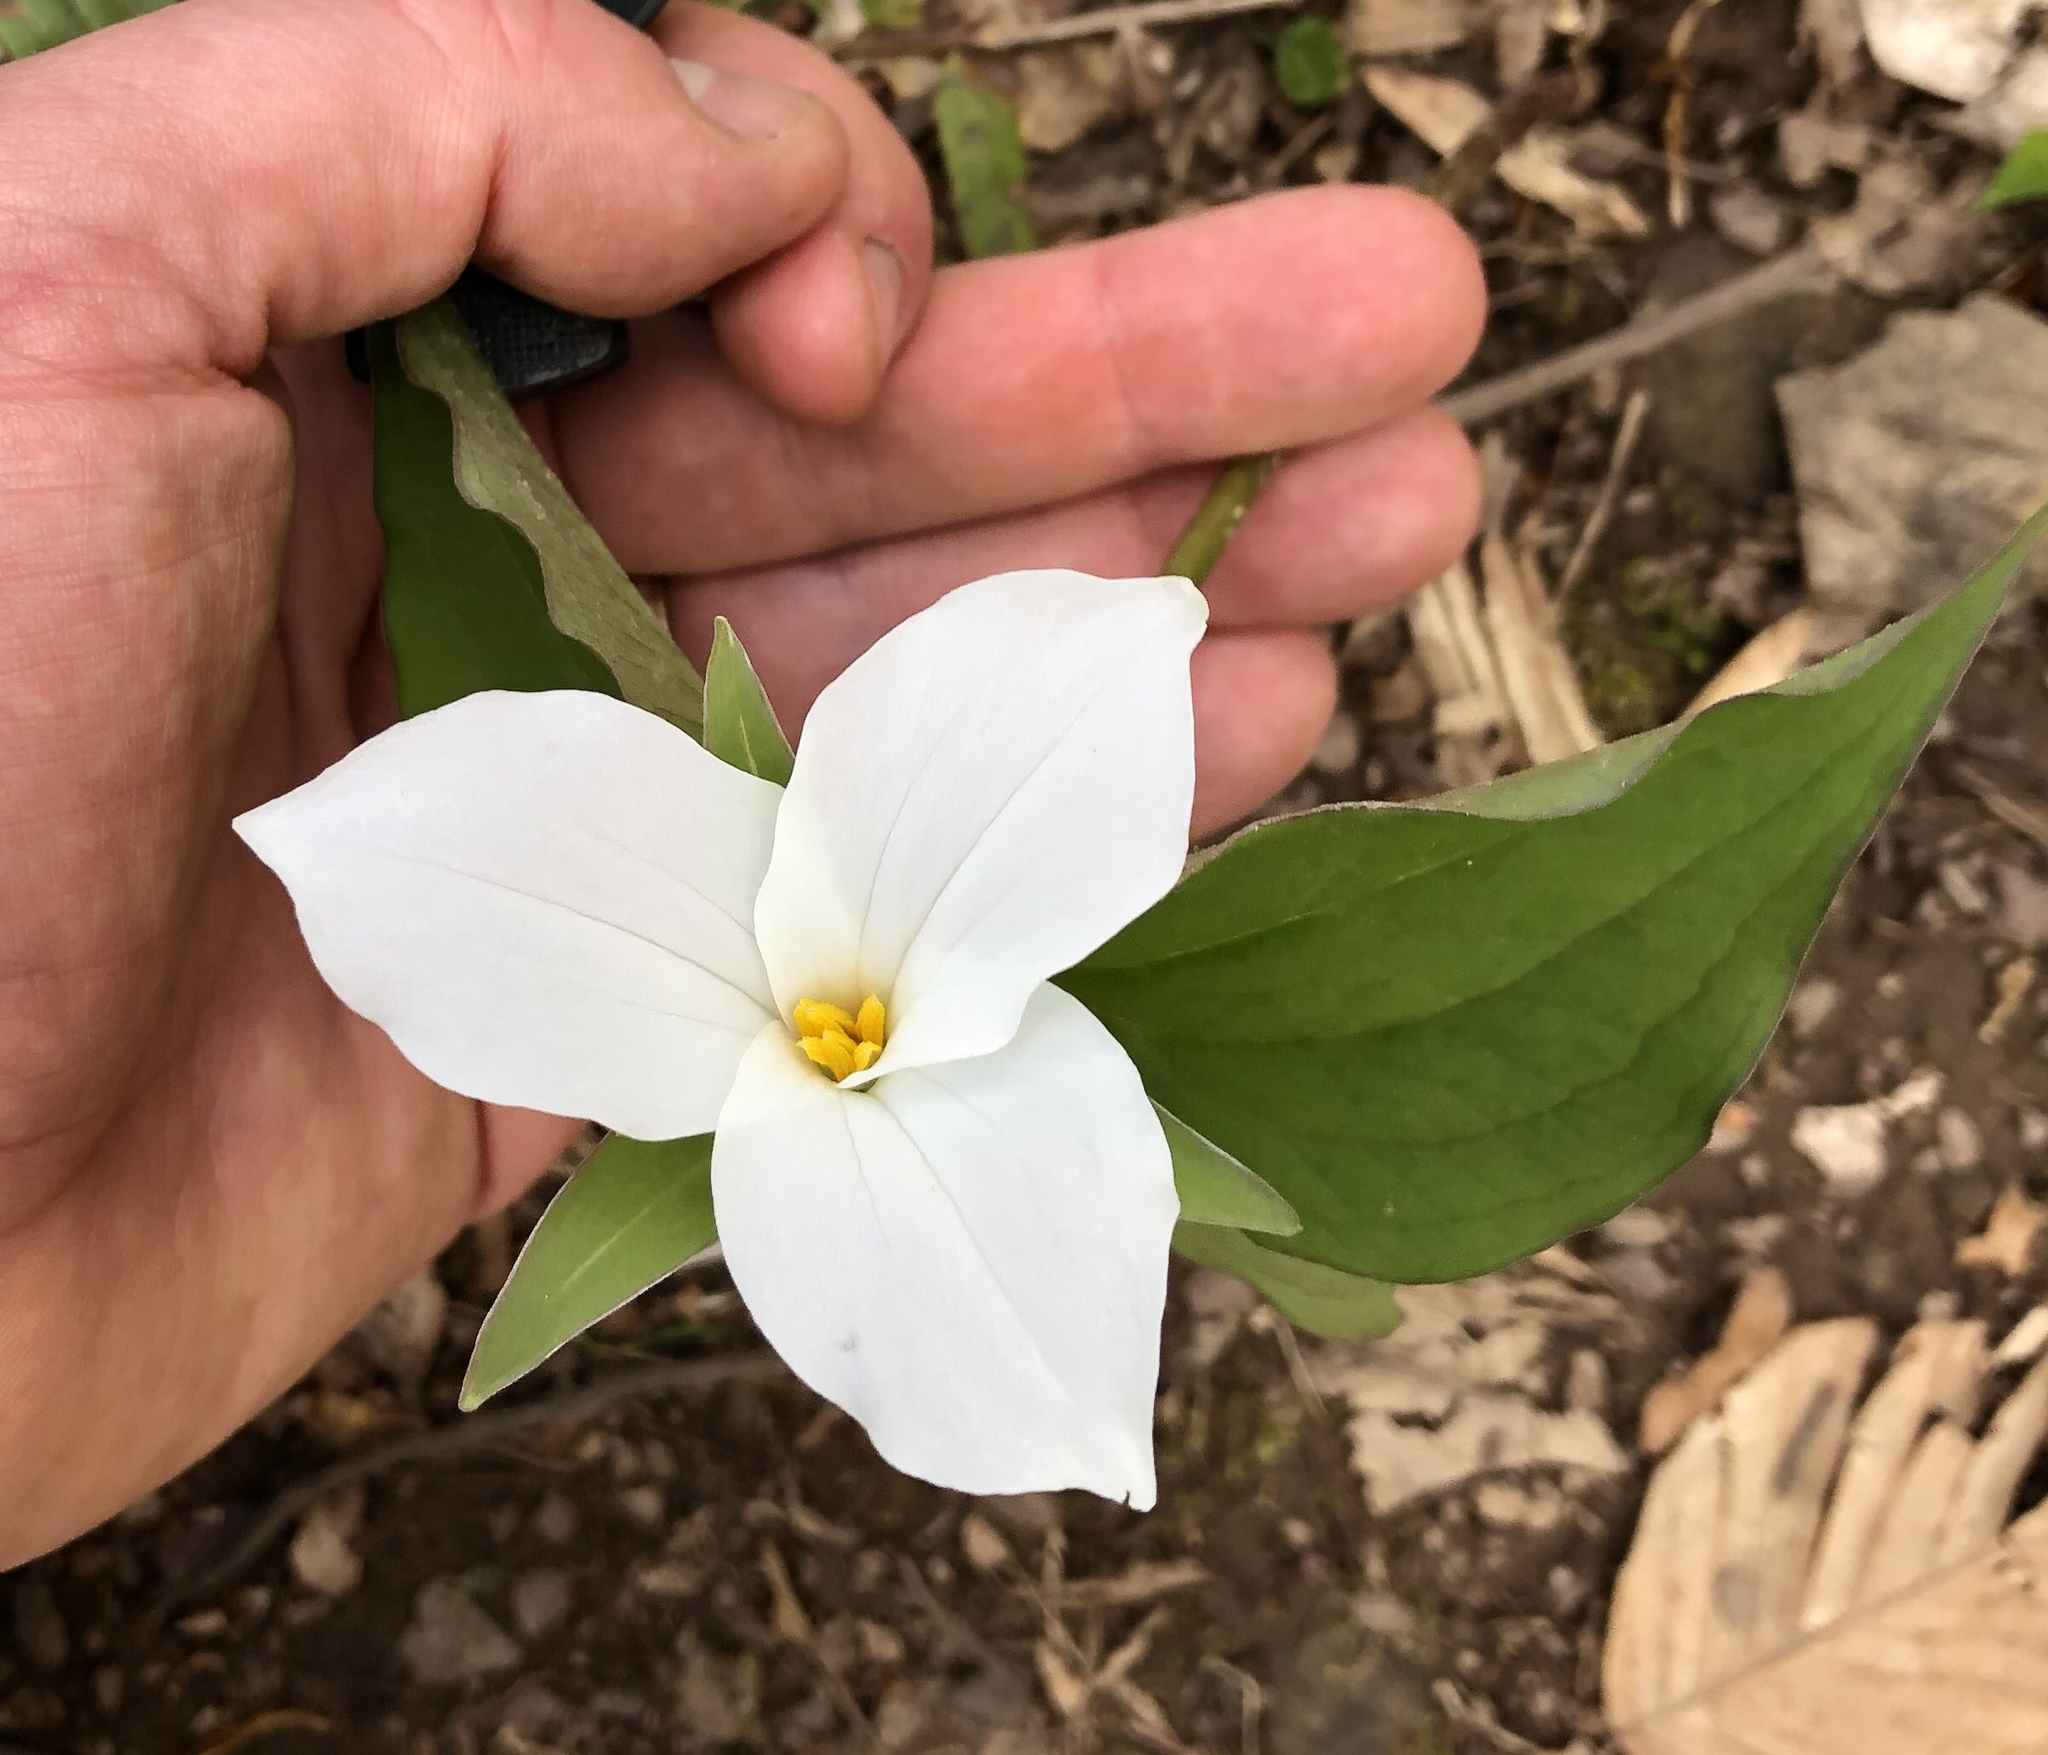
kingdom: Plantae
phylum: Tracheophyta
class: Liliopsida
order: Liliales
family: Melanthiaceae
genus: Trillium
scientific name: Trillium grandiflorum
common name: Great white trillium
